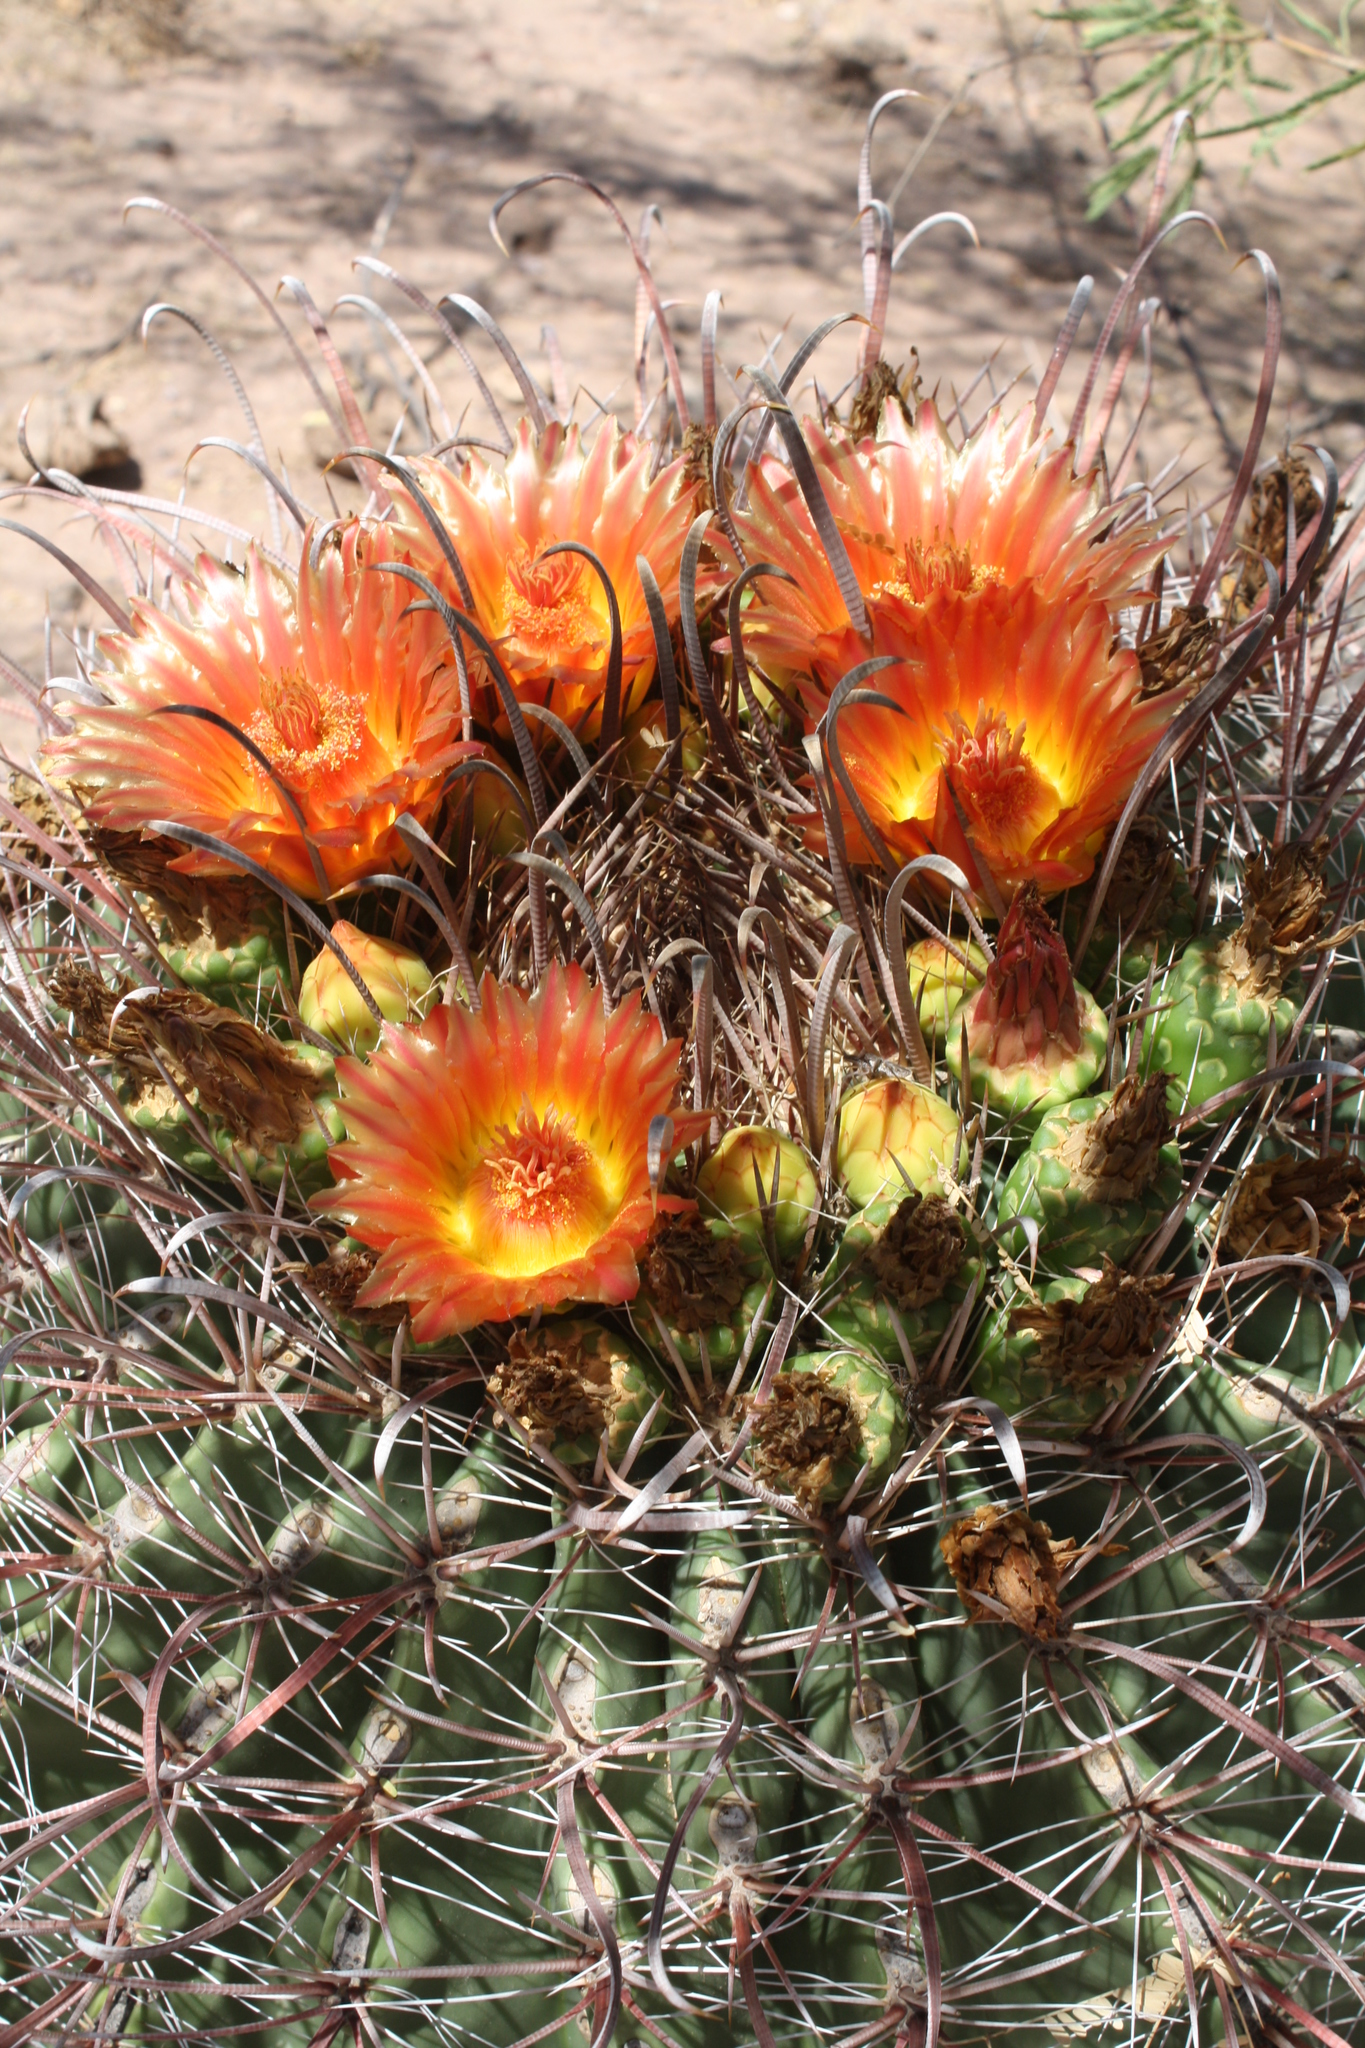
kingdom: Plantae
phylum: Tracheophyta
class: Magnoliopsida
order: Caryophyllales
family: Cactaceae
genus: Ferocactus
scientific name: Ferocactus wislizeni
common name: Candy barrel cactus
